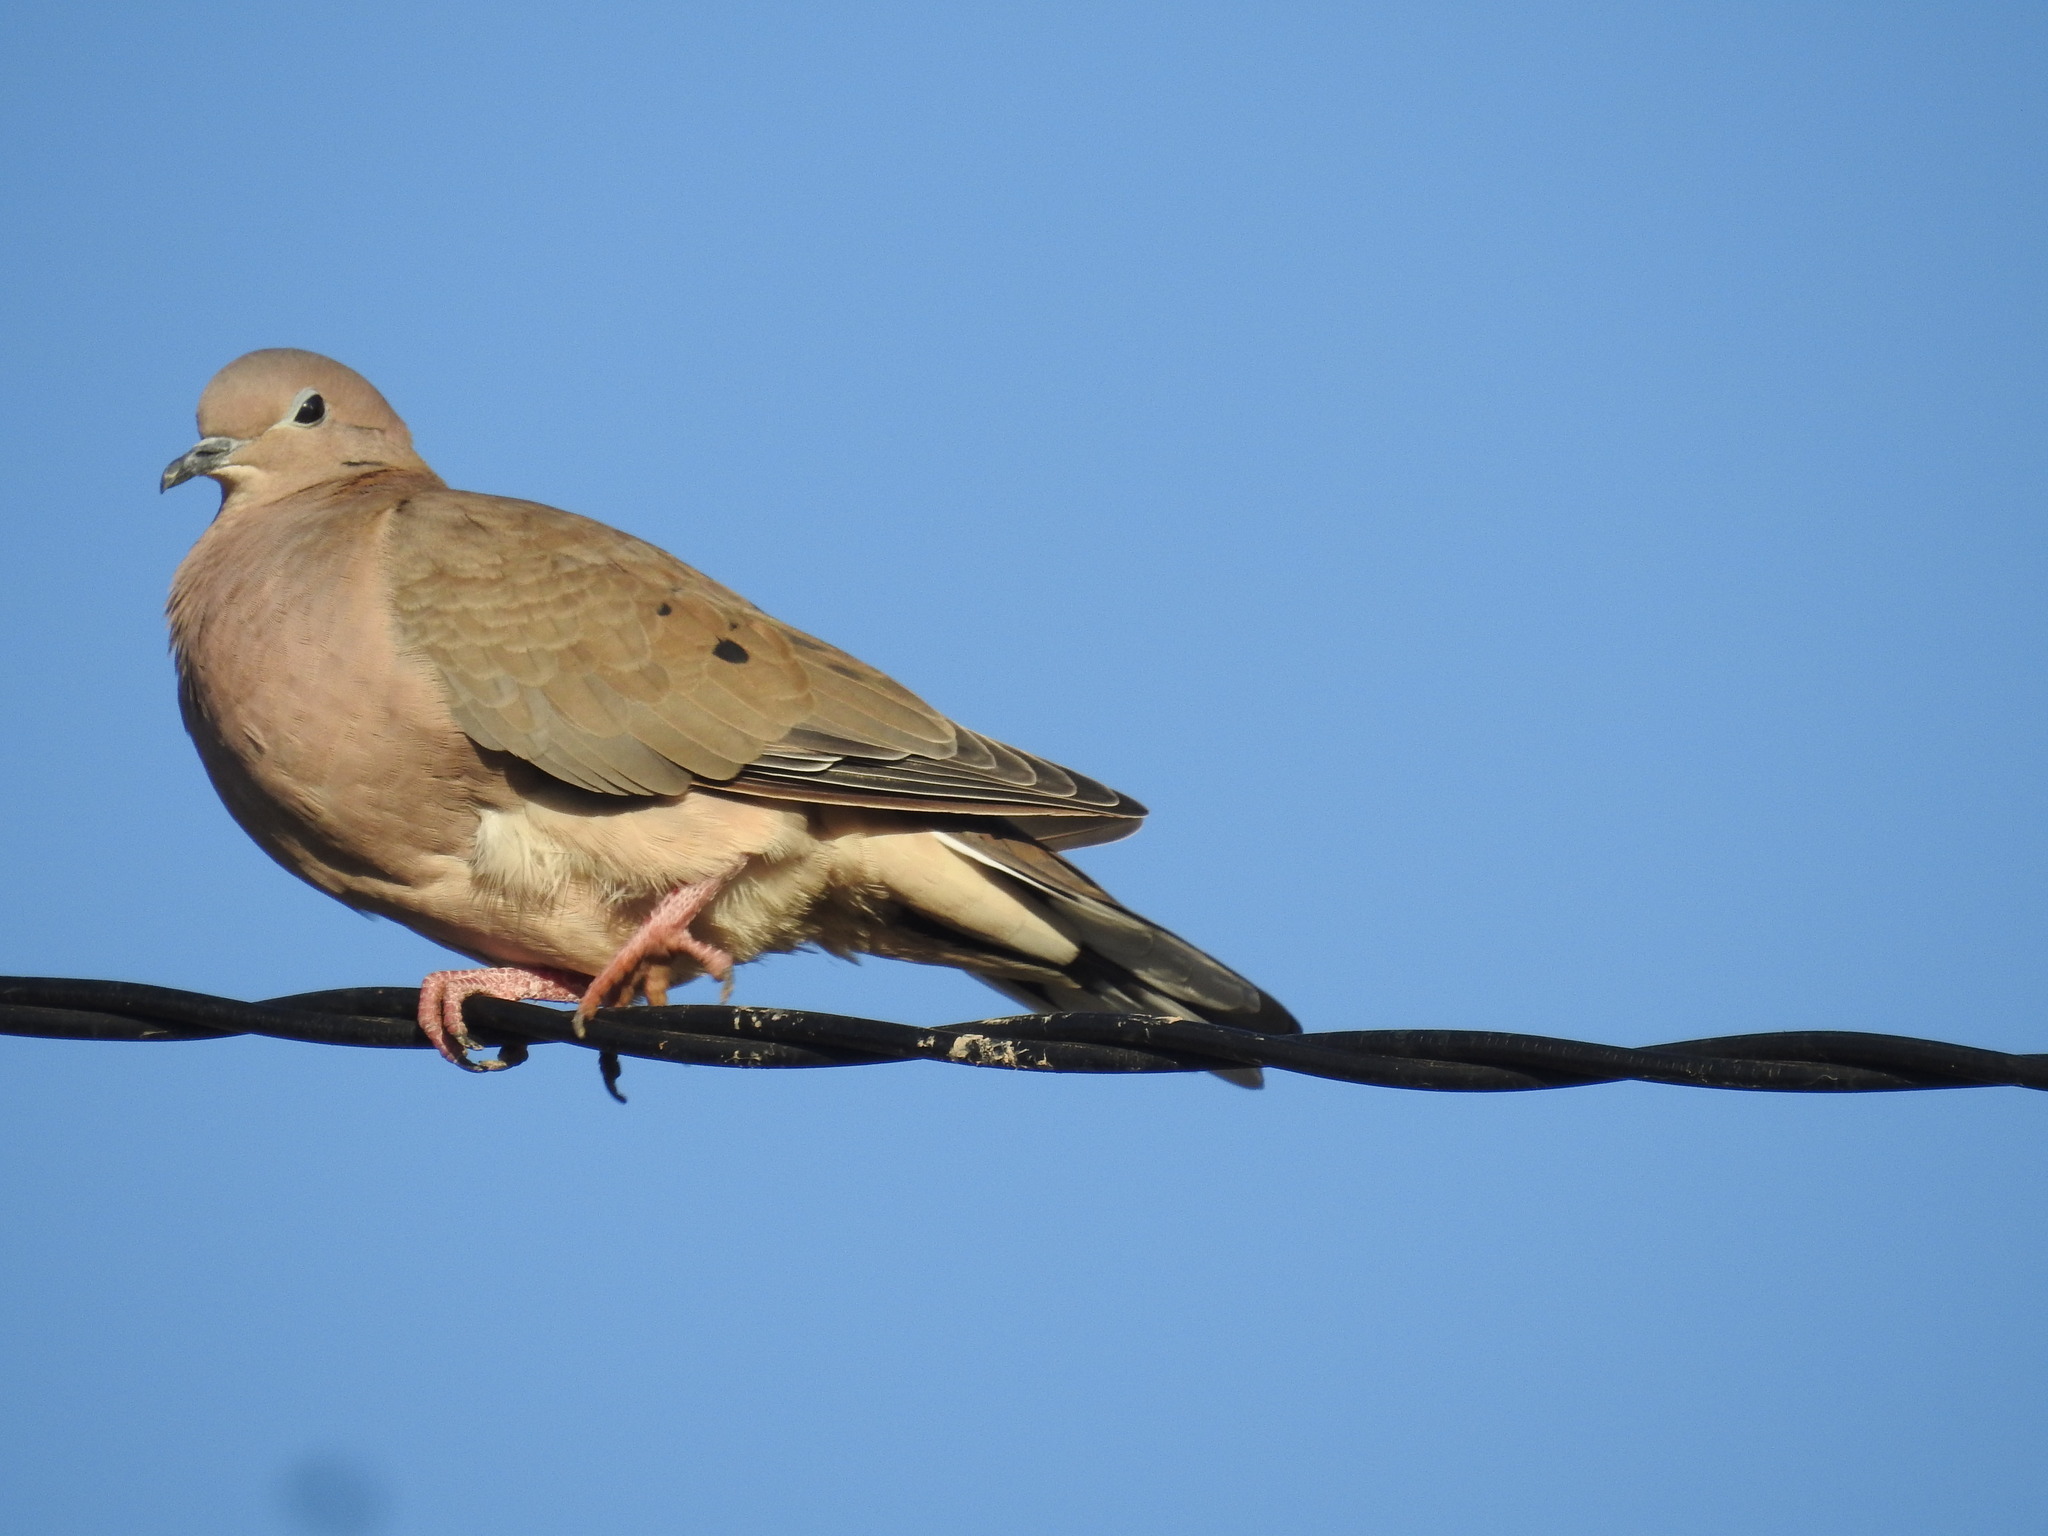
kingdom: Animalia
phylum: Chordata
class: Aves
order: Columbiformes
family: Columbidae
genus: Zenaida
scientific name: Zenaida auriculata
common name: Eared dove
